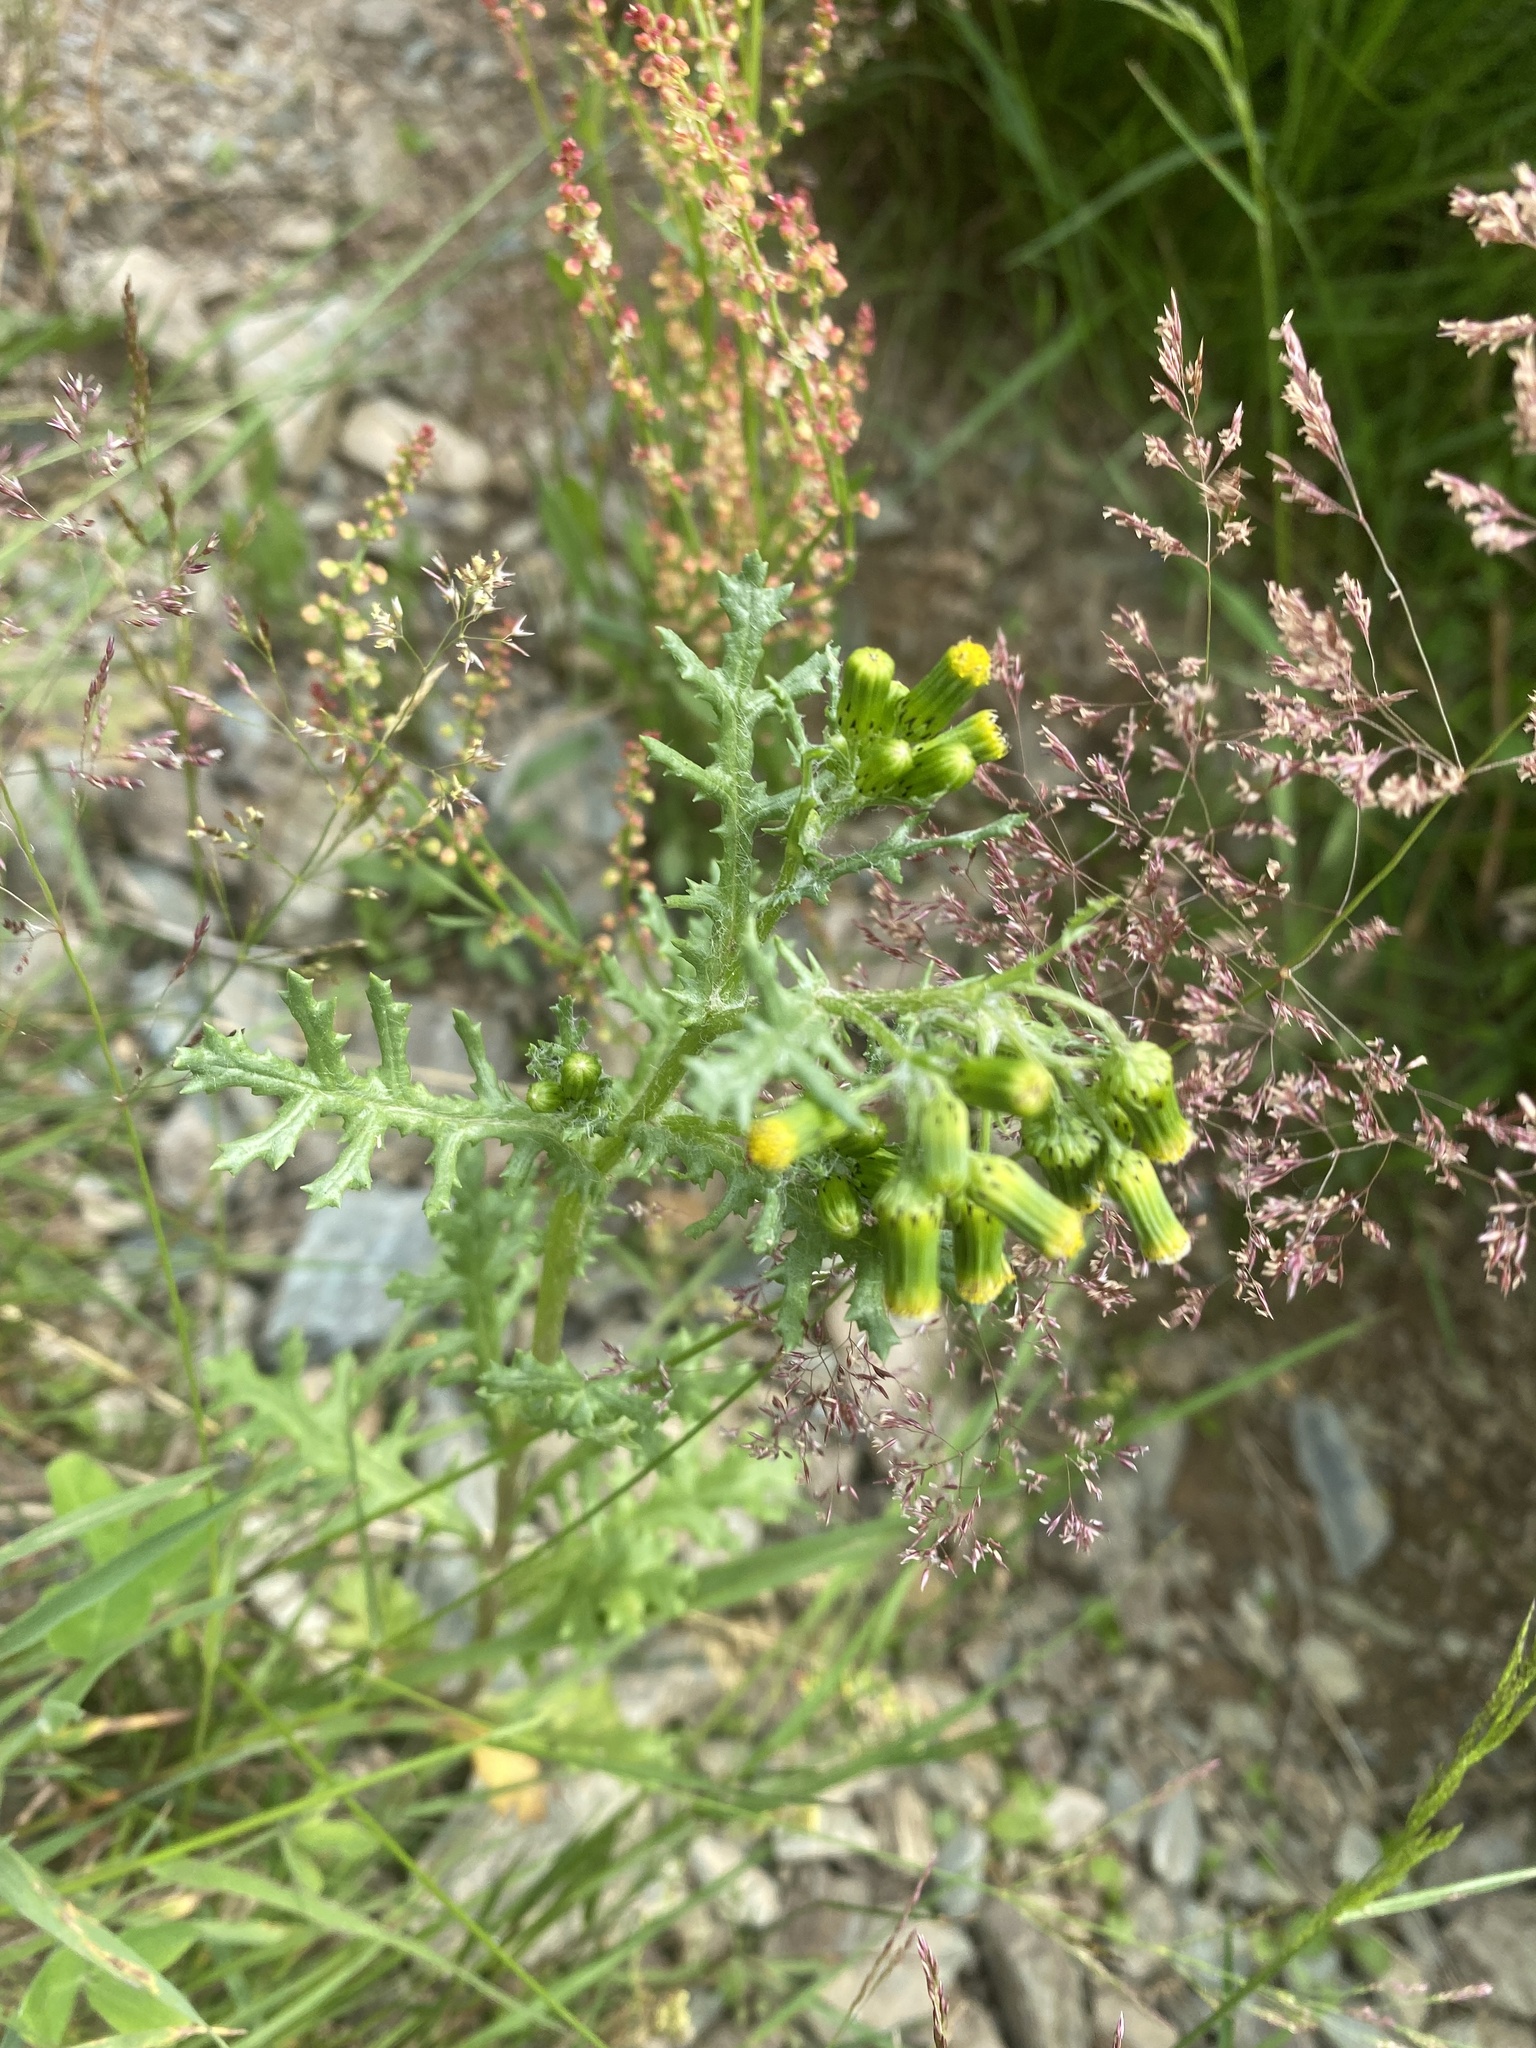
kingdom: Plantae
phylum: Tracheophyta
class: Magnoliopsida
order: Asterales
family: Asteraceae
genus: Senecio
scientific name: Senecio vulgaris
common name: Old-man-in-the-spring
